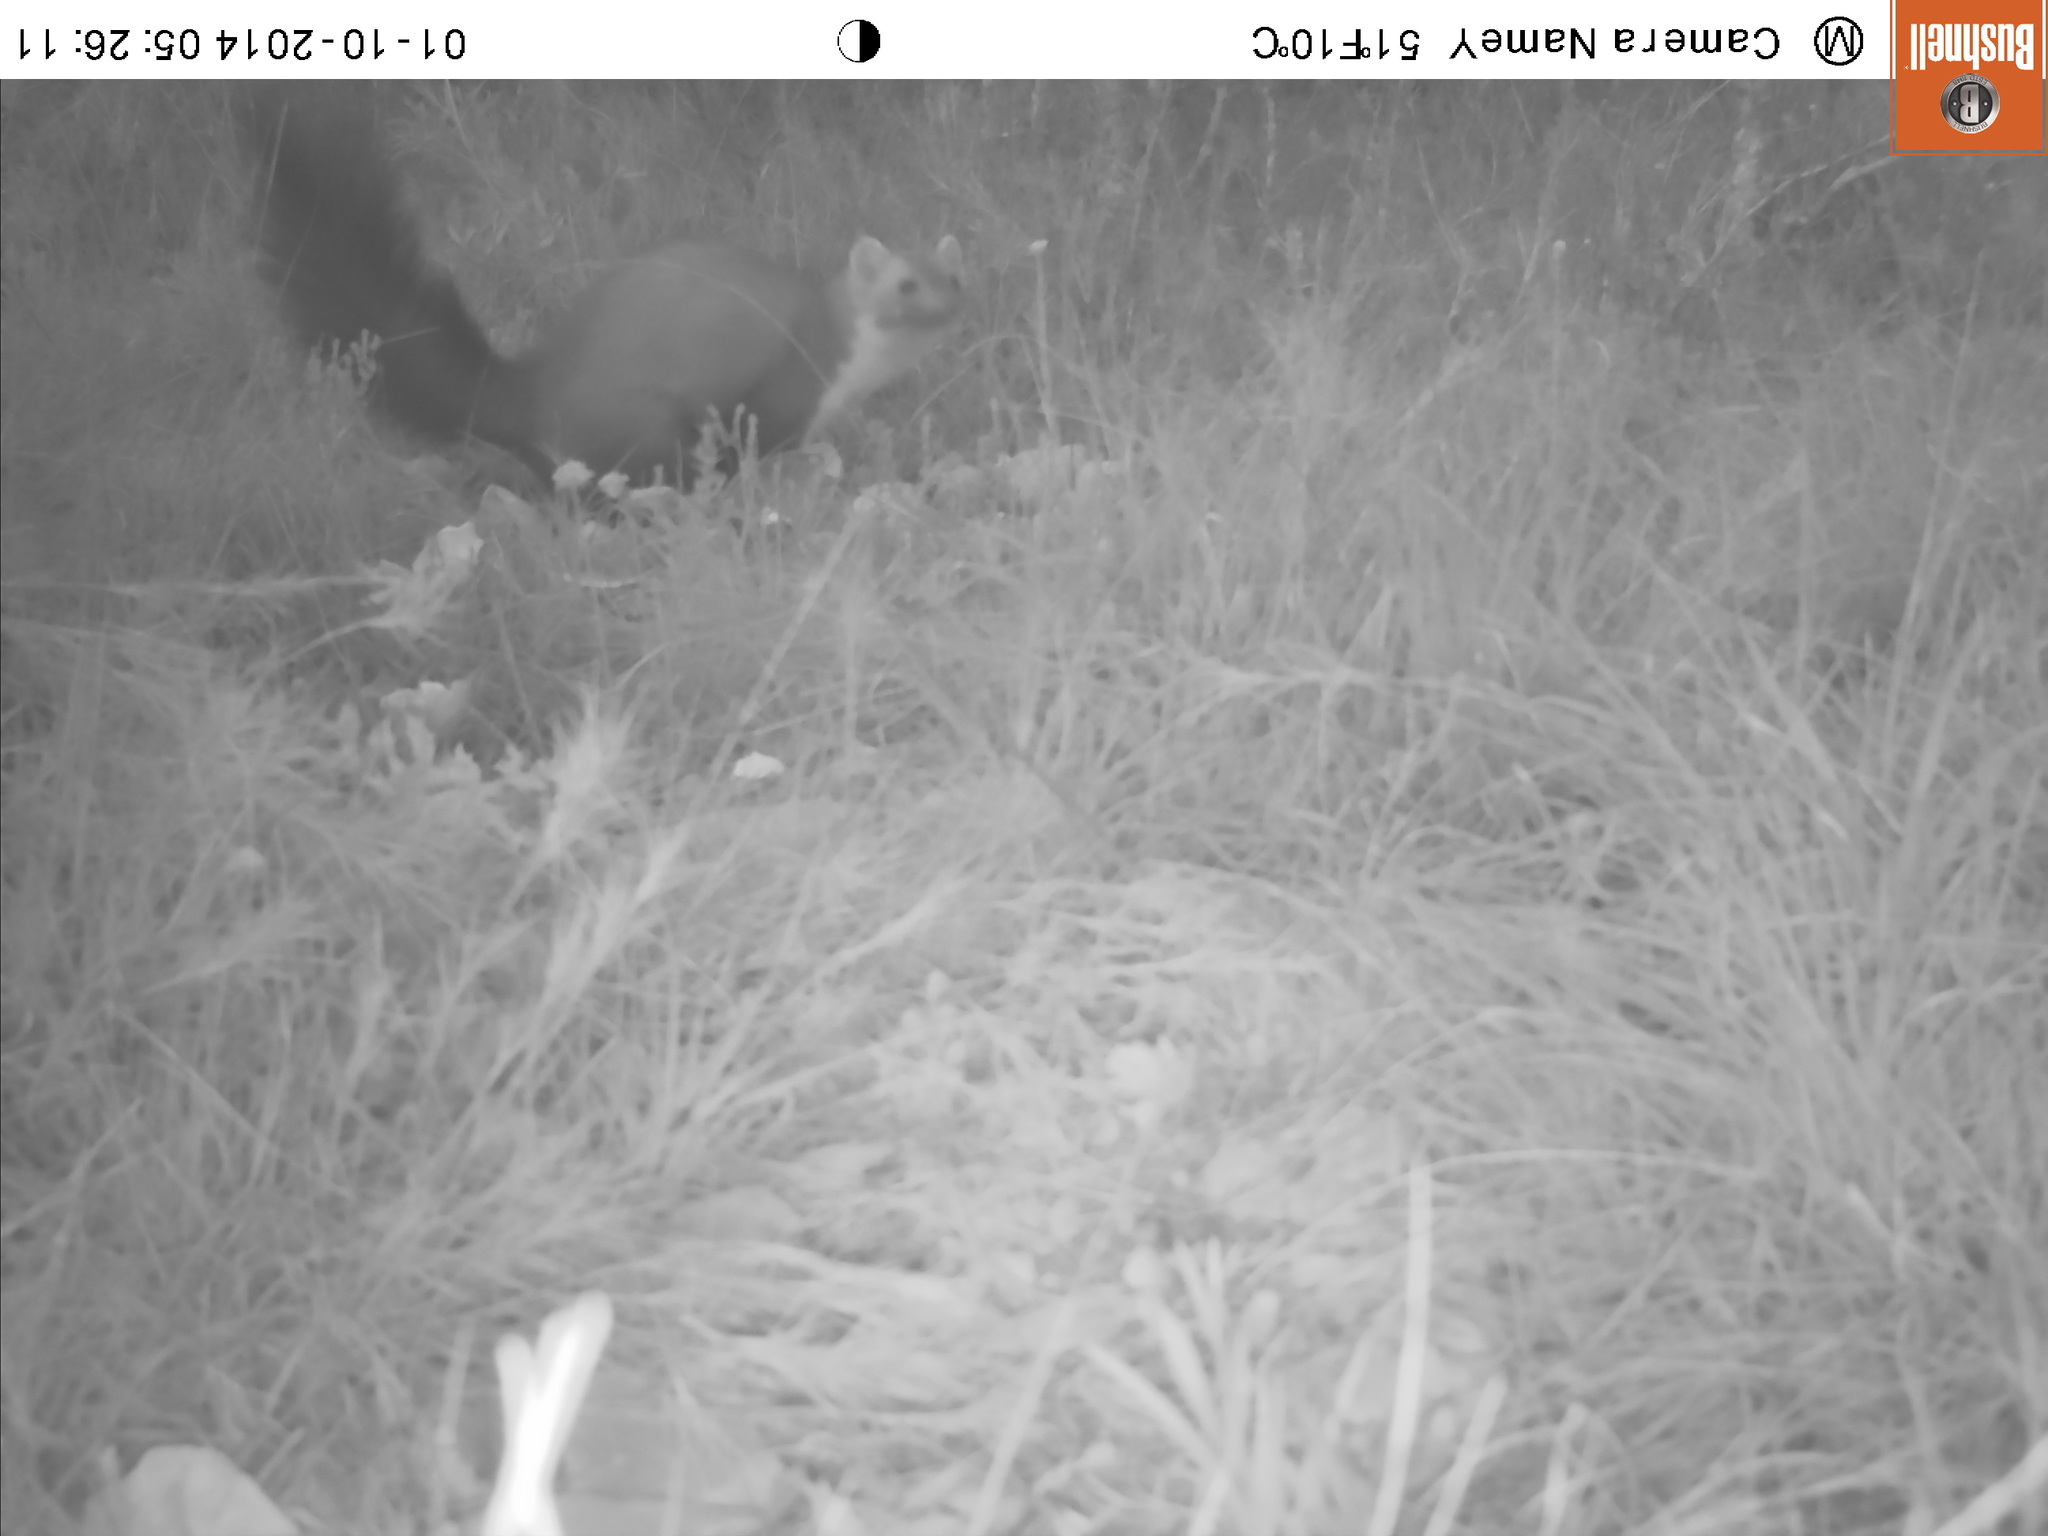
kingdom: Animalia
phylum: Chordata
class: Mammalia
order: Carnivora
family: Mustelidae
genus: Martes
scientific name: Martes foina
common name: Beech marten
